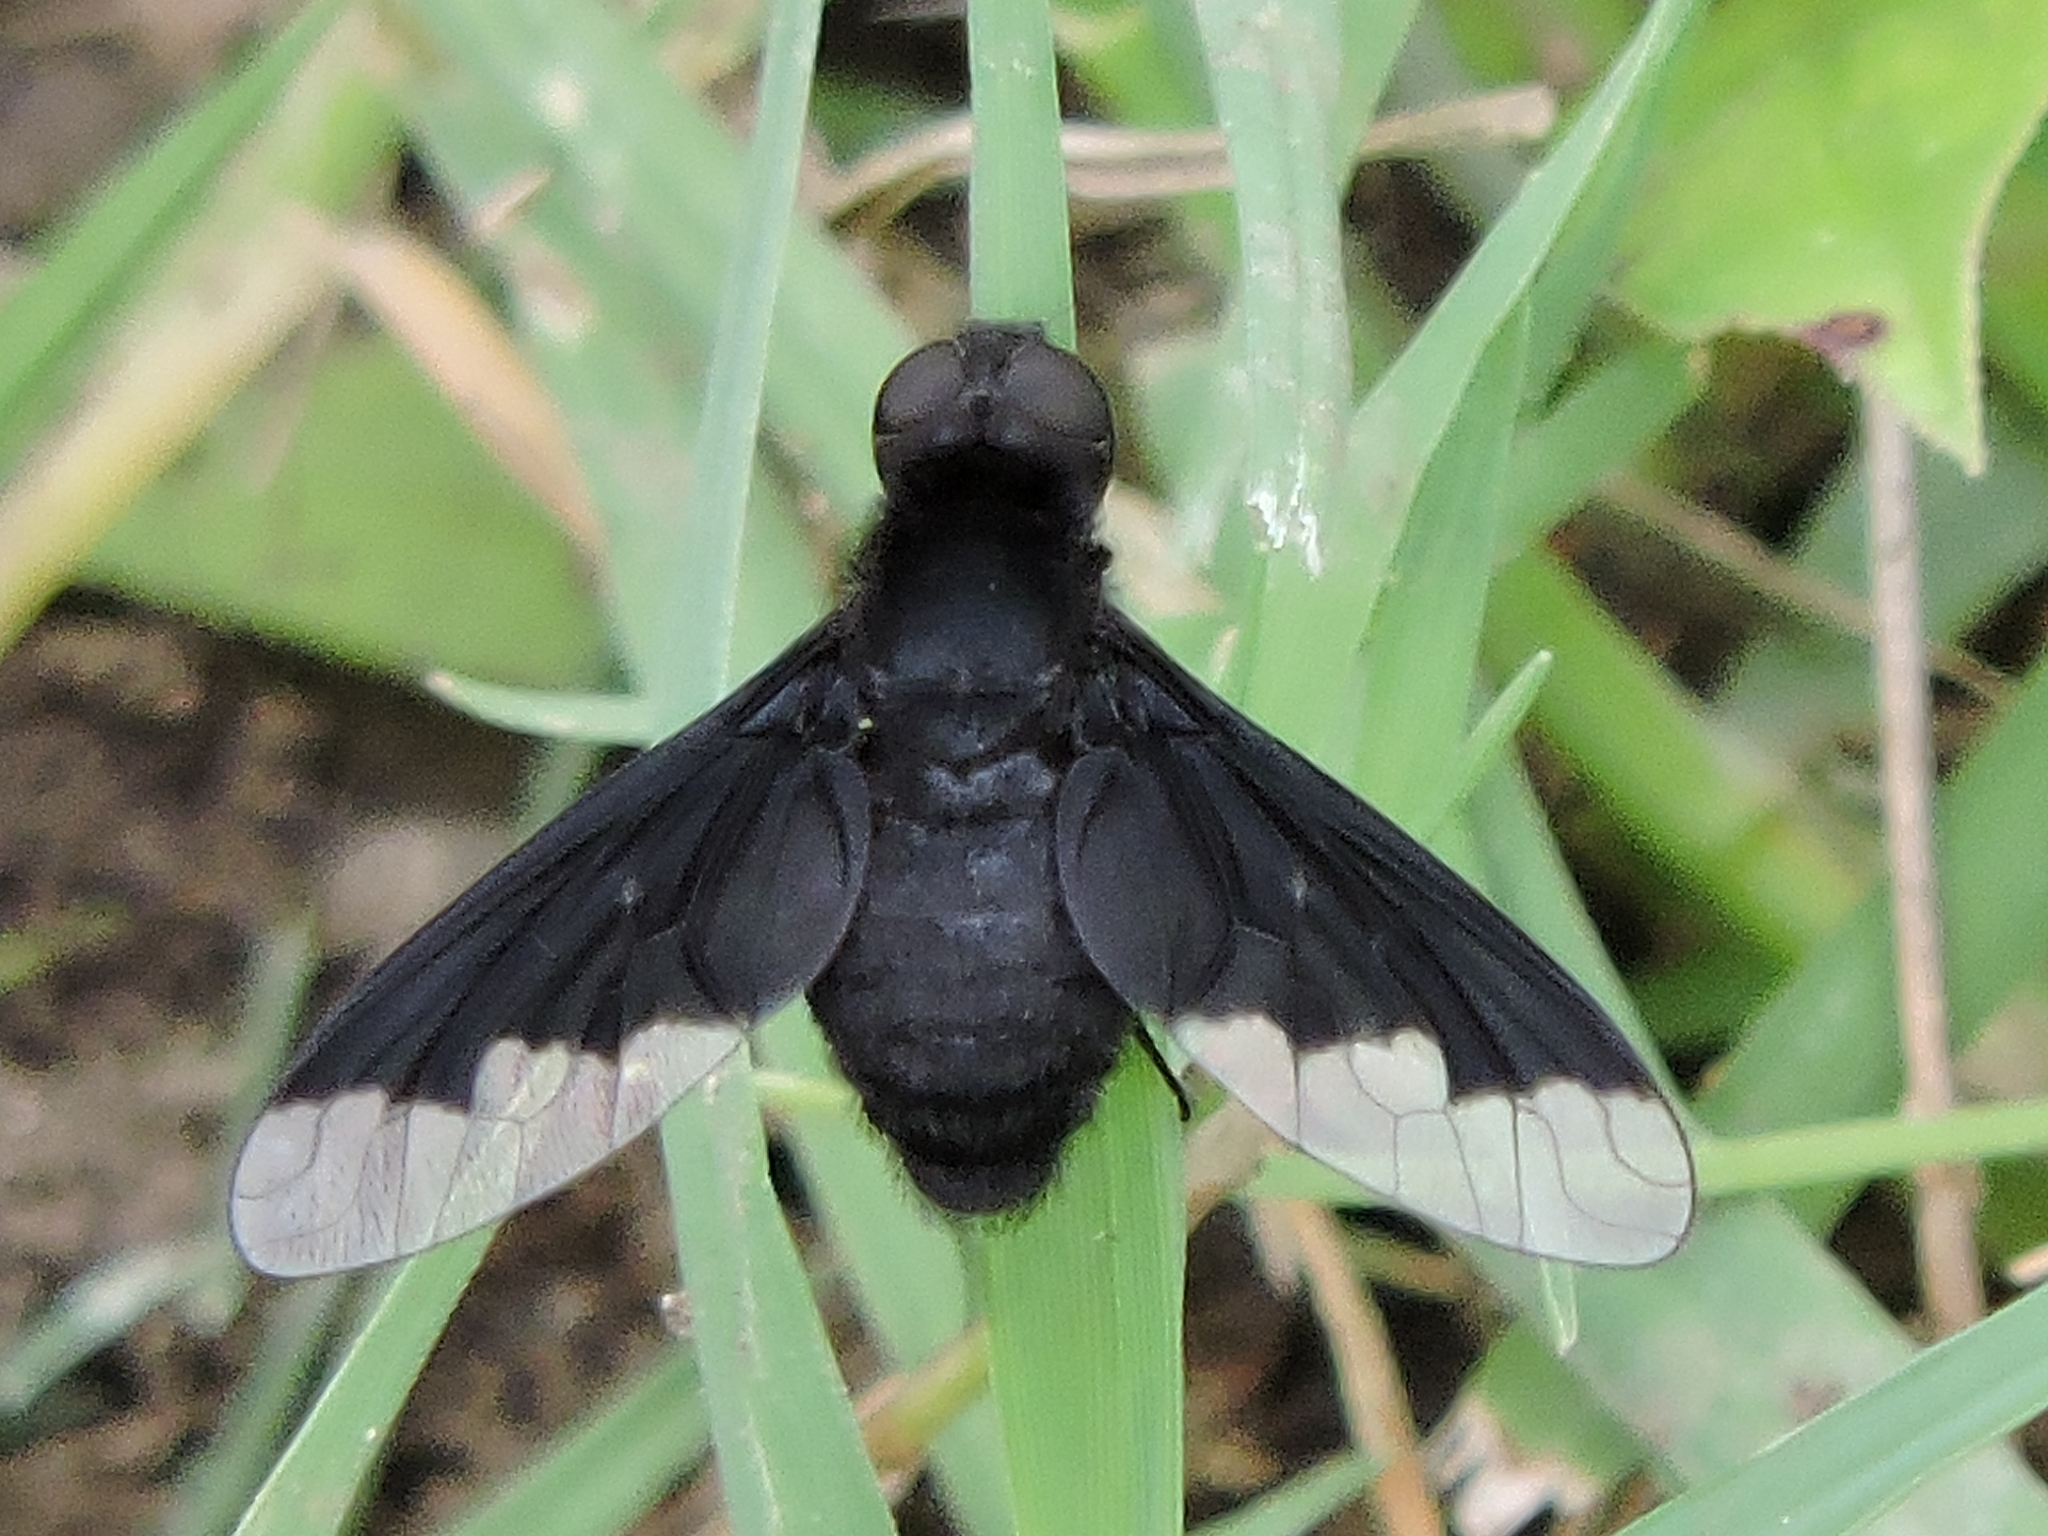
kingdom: Animalia
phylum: Arthropoda
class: Insecta
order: Diptera
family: Bombyliidae
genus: Anthrax
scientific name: Anthrax analis
